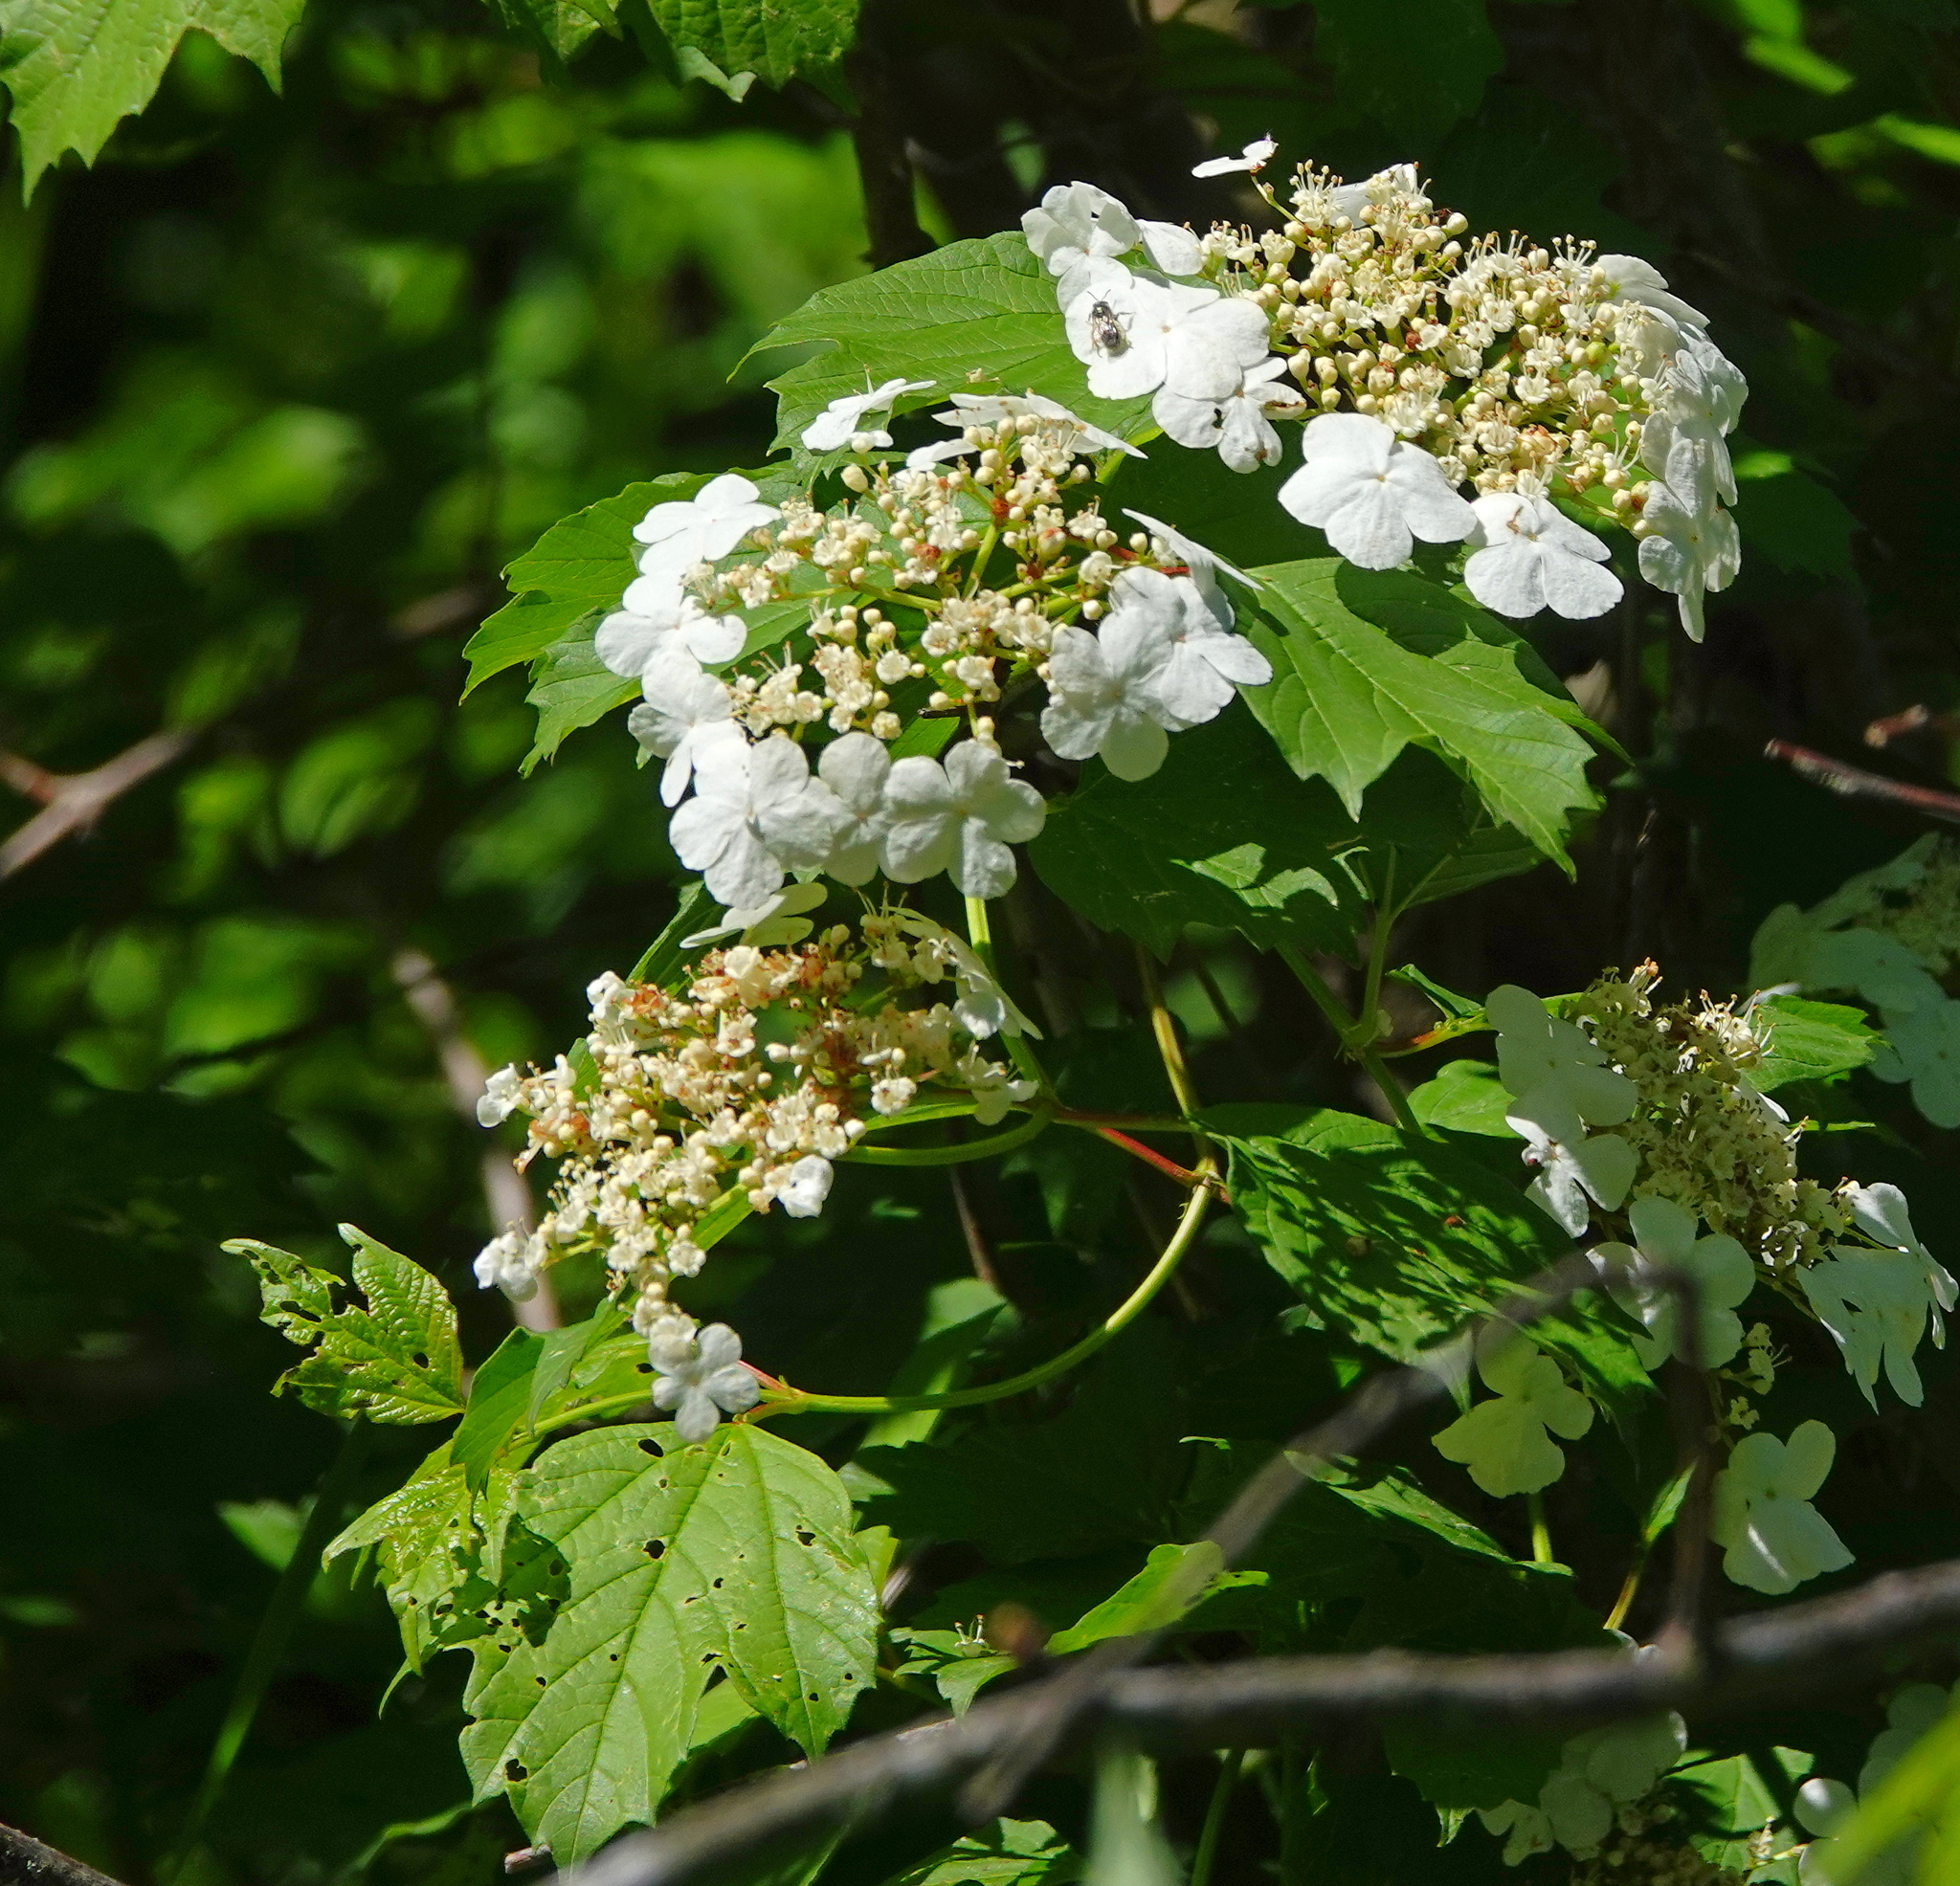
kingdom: Plantae
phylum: Tracheophyta
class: Magnoliopsida
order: Dipsacales
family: Viburnaceae
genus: Viburnum
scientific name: Viburnum opulus
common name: Guelder-rose
